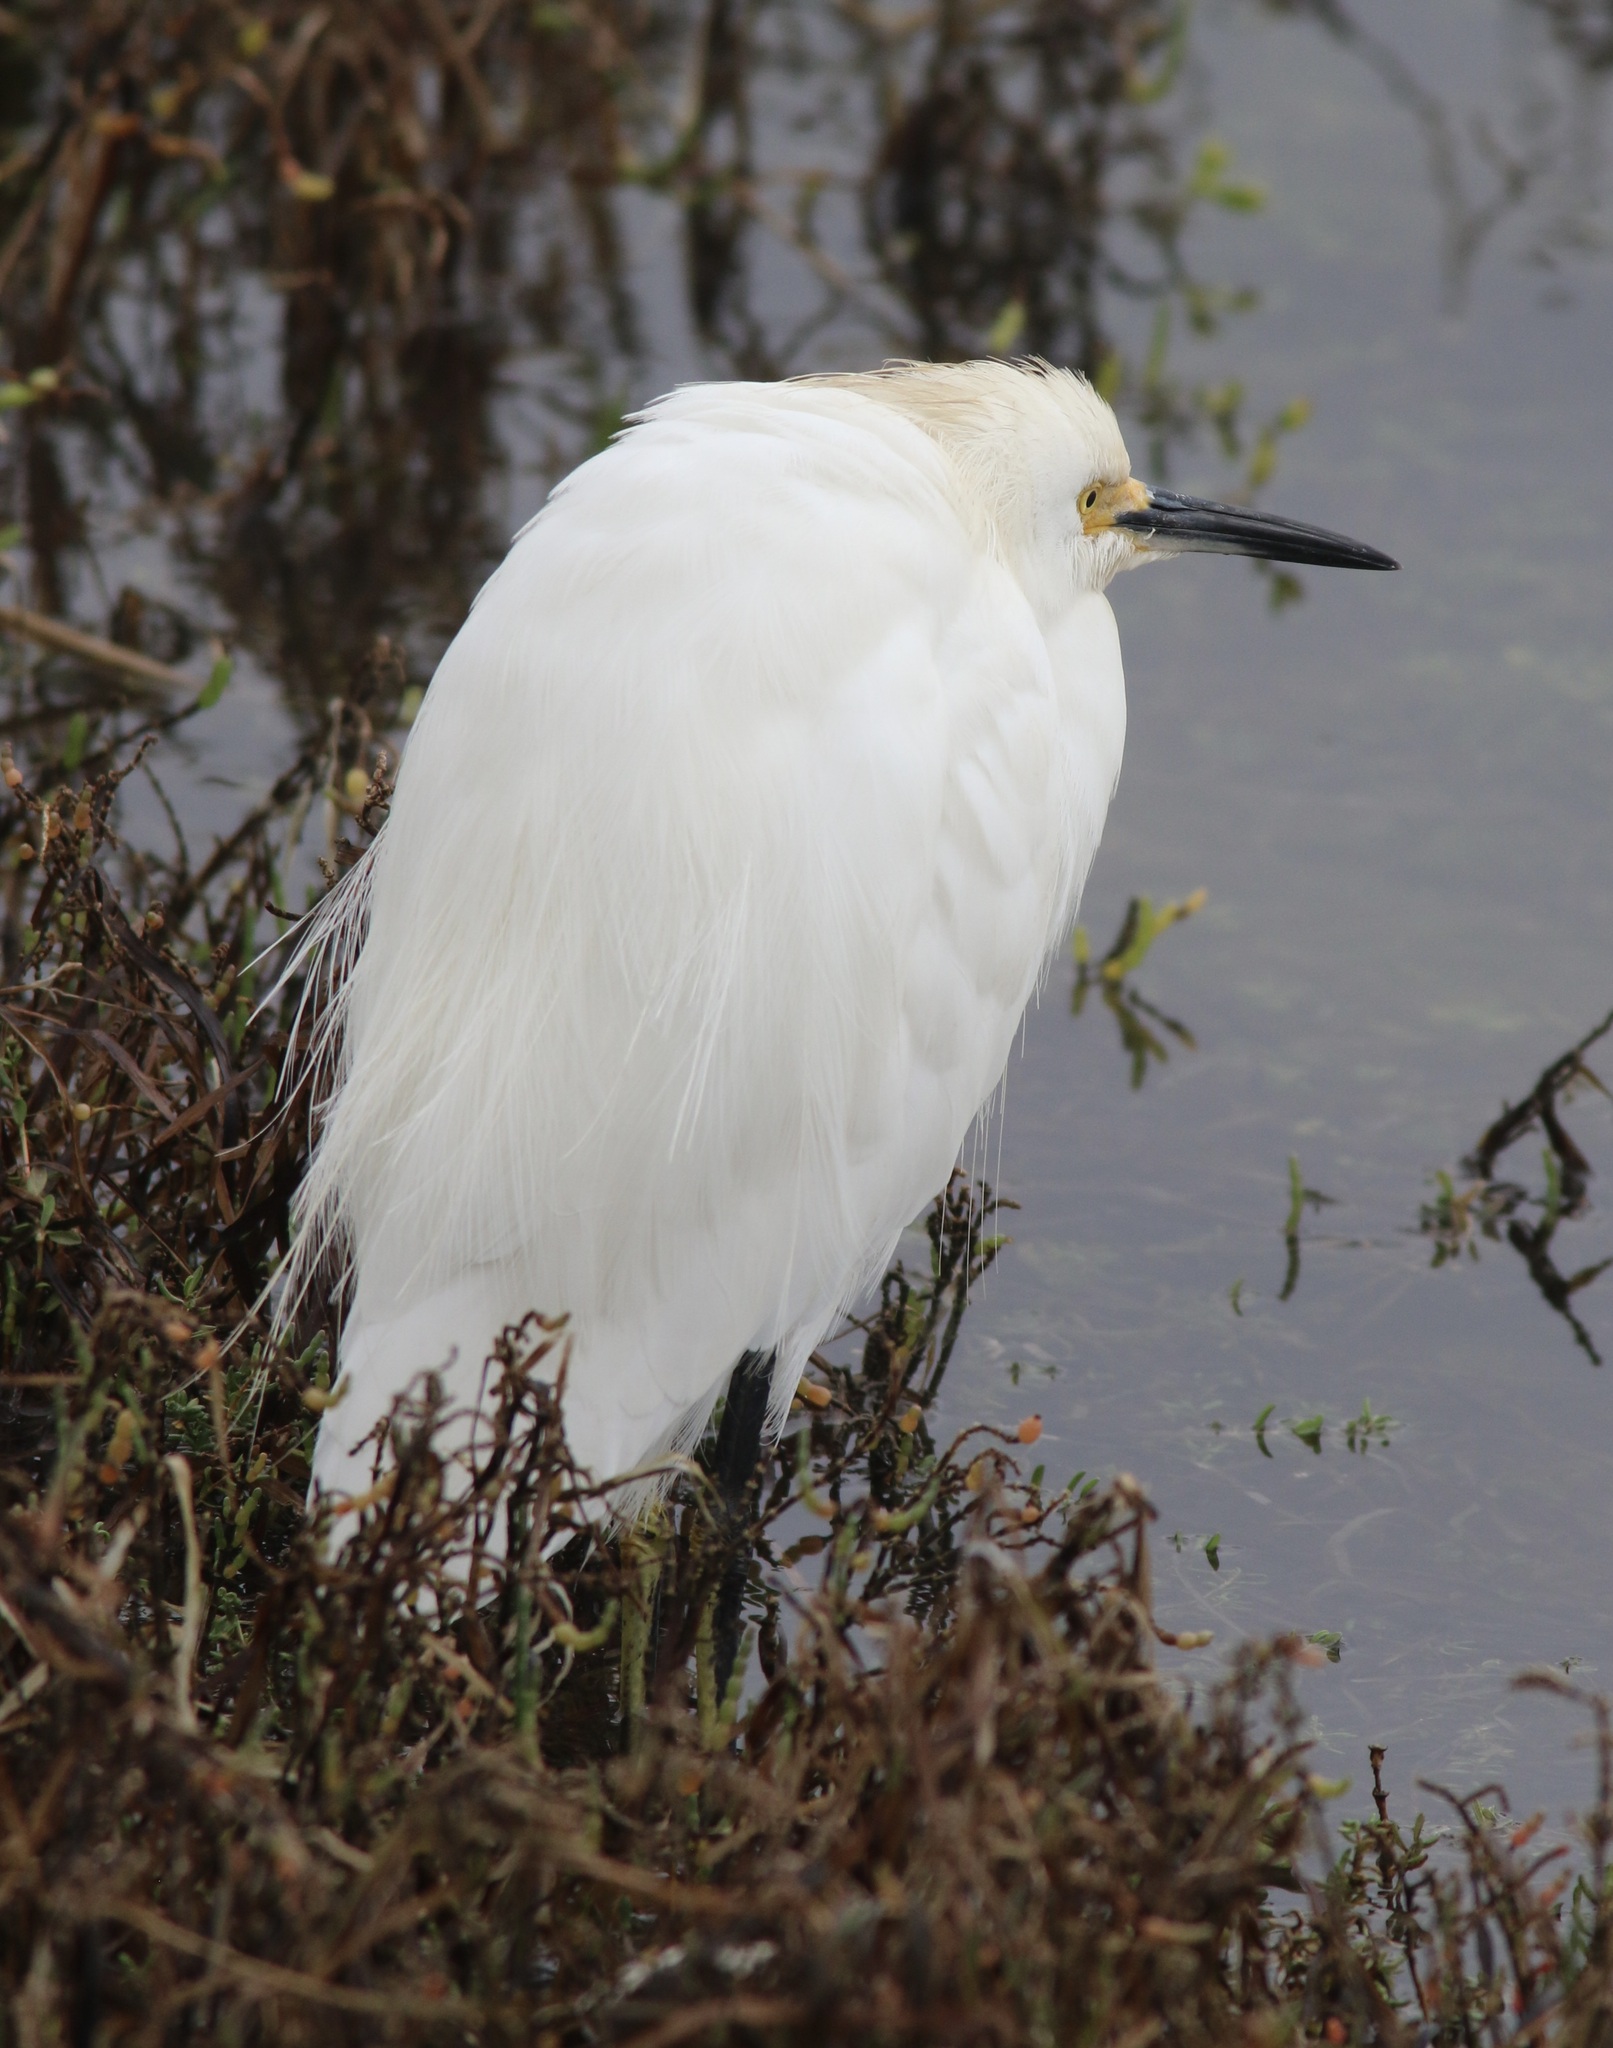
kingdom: Animalia
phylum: Chordata
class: Aves
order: Pelecaniformes
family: Ardeidae
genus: Egretta
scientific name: Egretta thula
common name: Snowy egret
